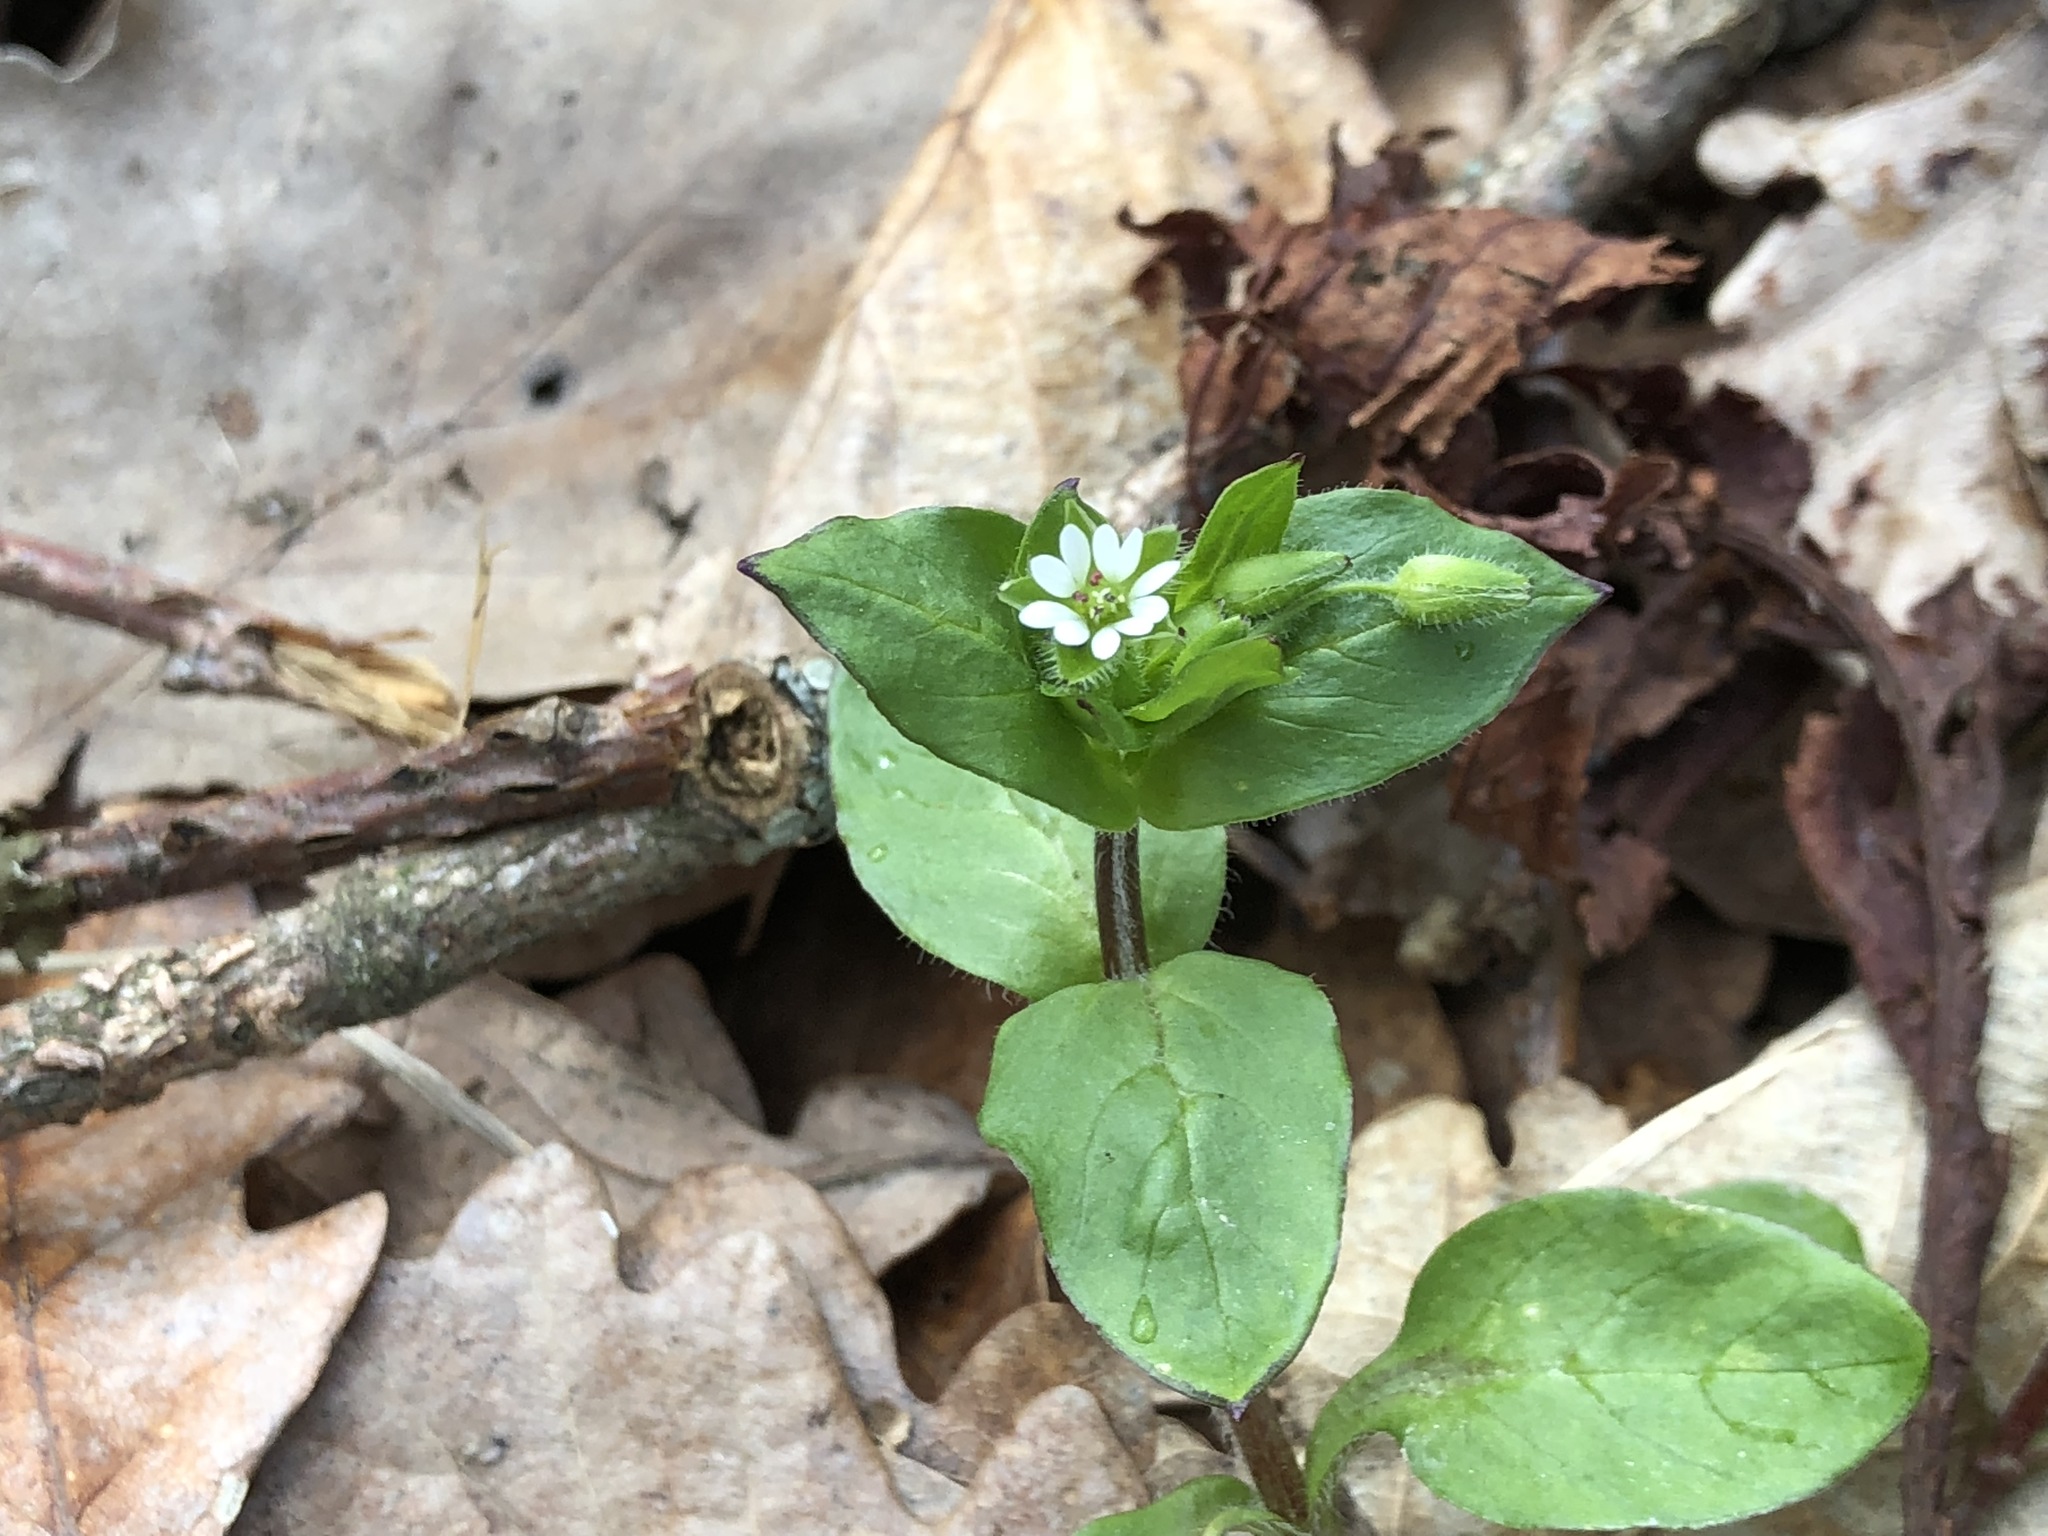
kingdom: Plantae
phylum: Tracheophyta
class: Magnoliopsida
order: Caryophyllales
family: Caryophyllaceae
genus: Stellaria
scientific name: Stellaria media
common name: Common chickweed
